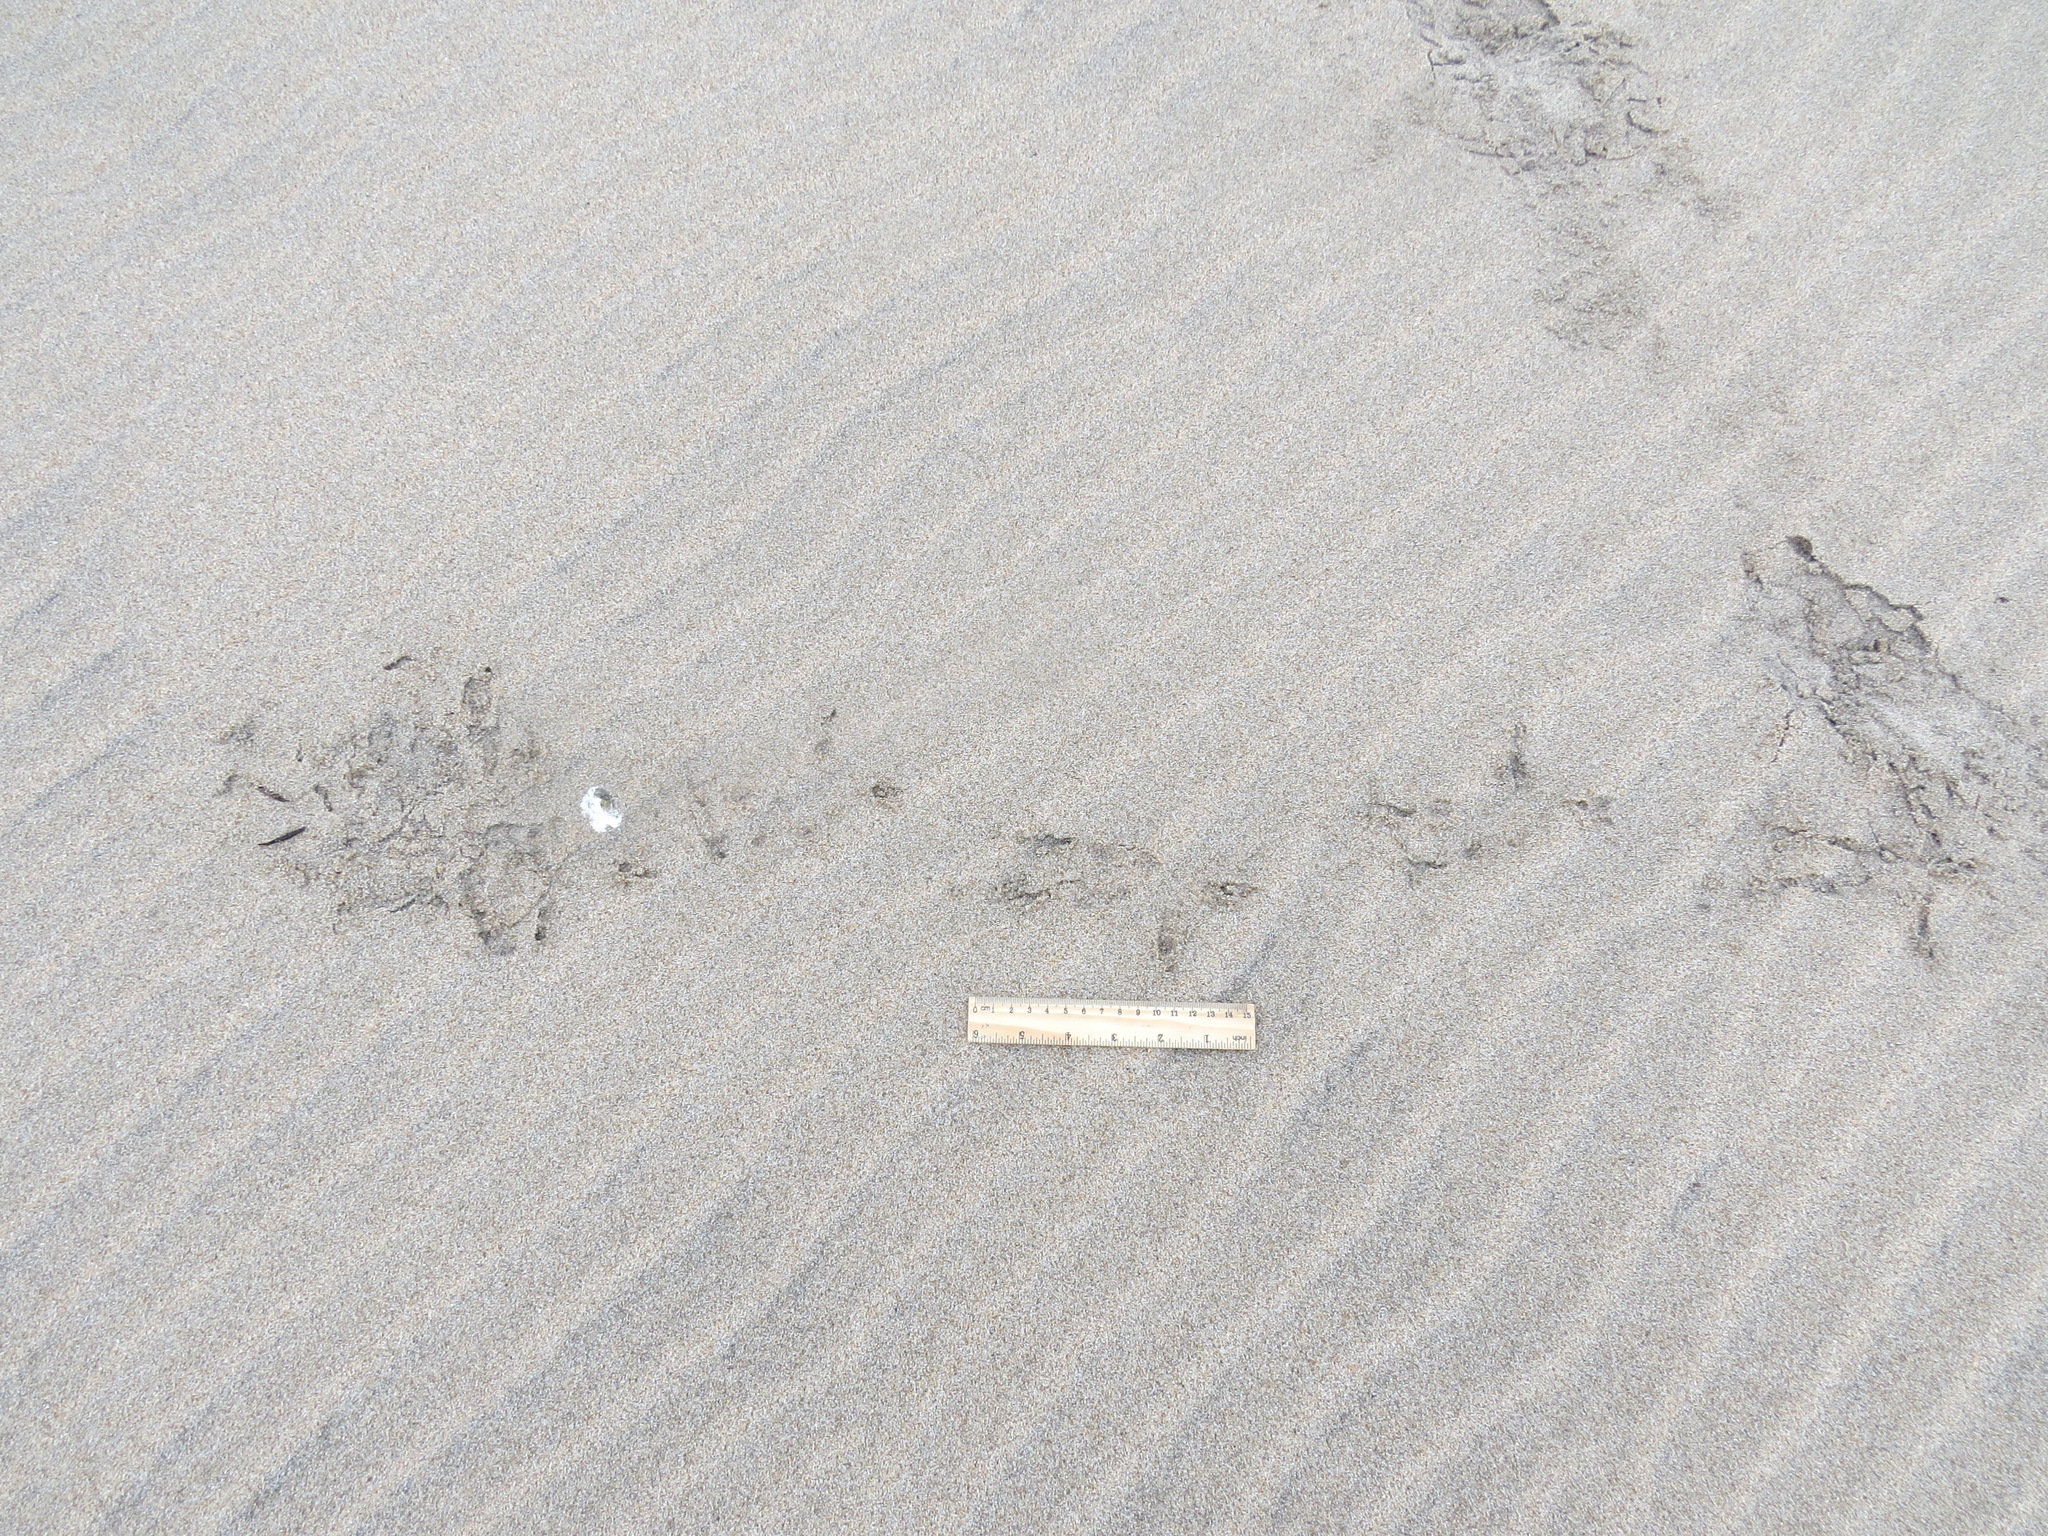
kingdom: Animalia
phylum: Chordata
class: Aves
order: Strigiformes
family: Strigidae
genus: Bubo
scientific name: Bubo virginianus
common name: Great horned owl
